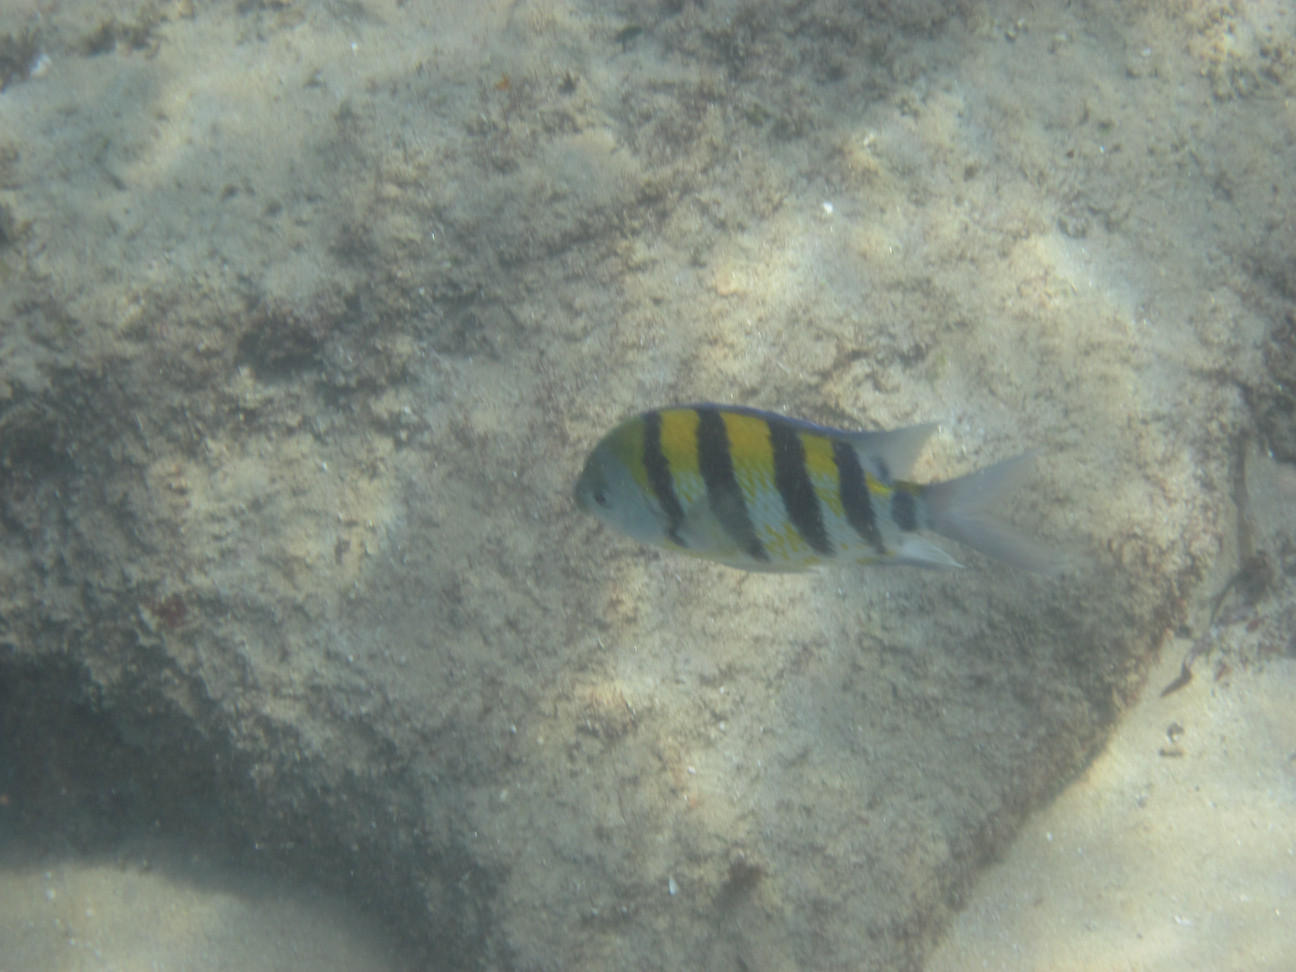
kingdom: Animalia
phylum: Chordata
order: Perciformes
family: Pomacentridae
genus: Abudefduf
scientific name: Abudefduf vaigiensis
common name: Indo-pacific sergeant
